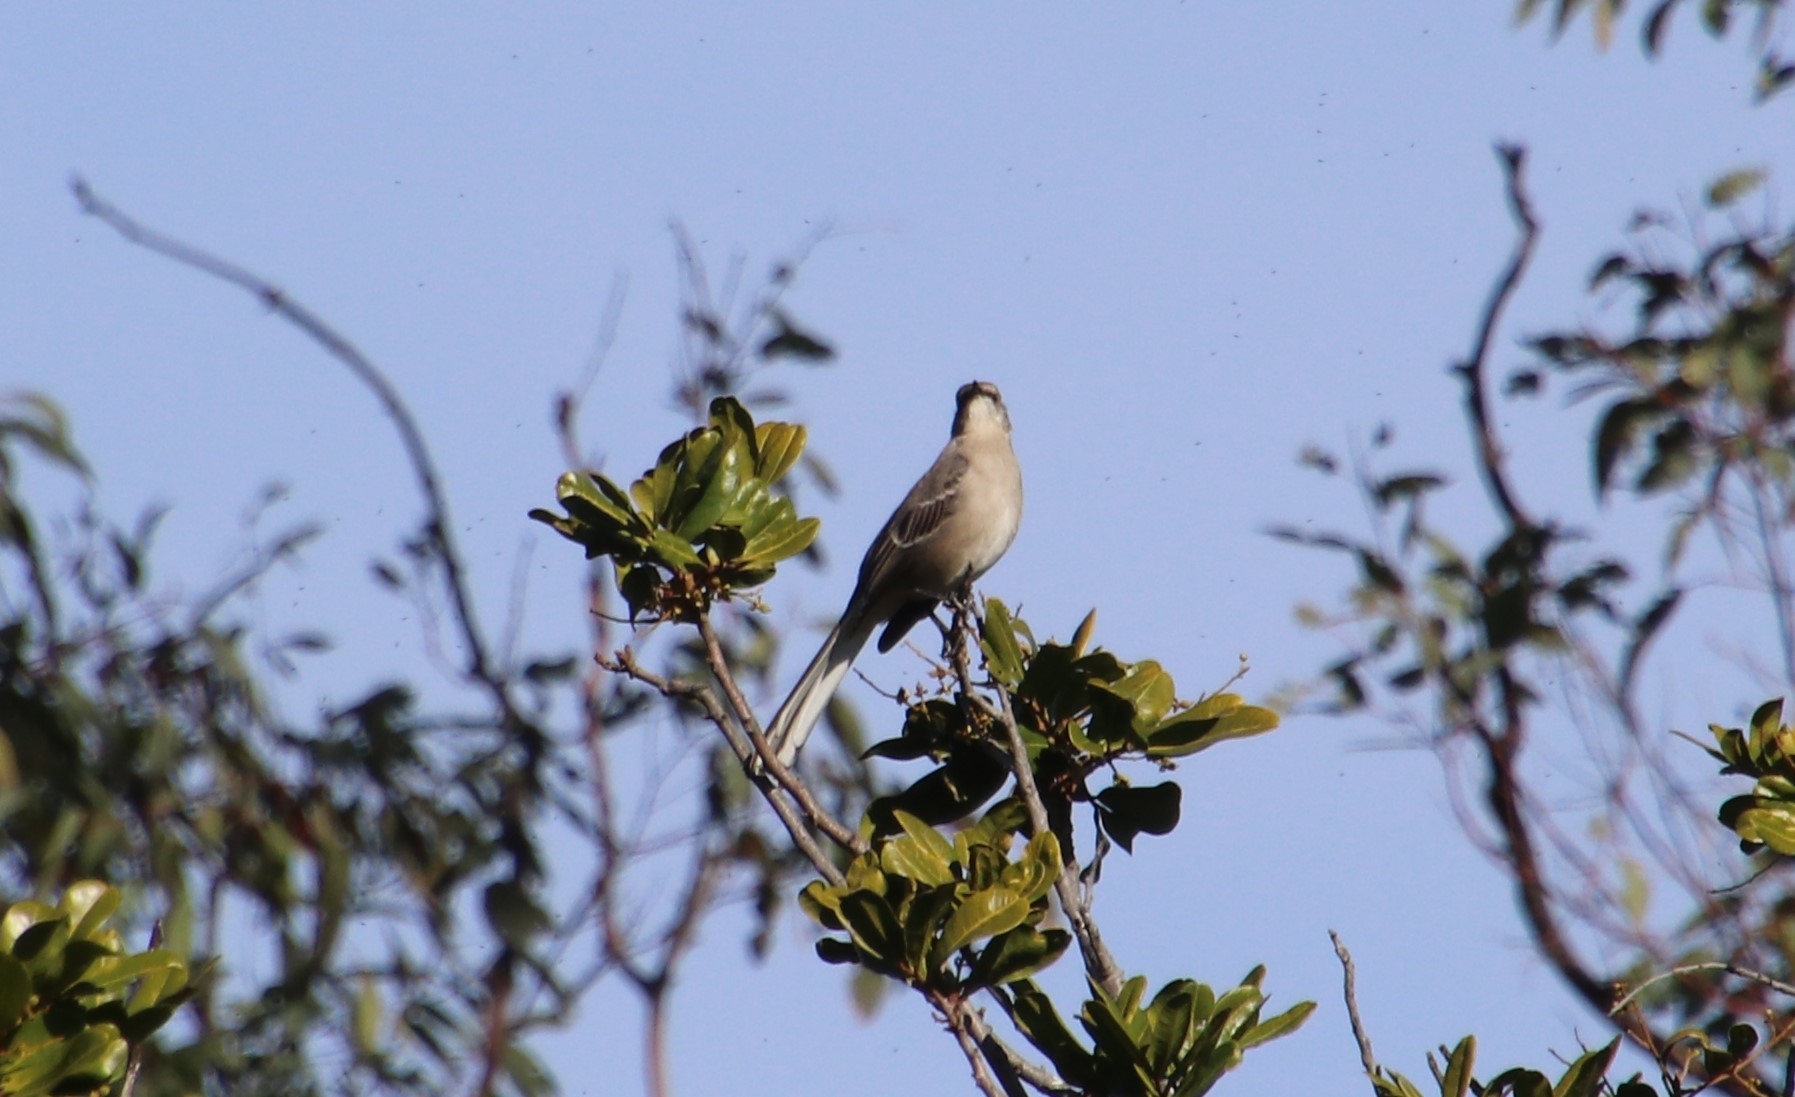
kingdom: Animalia
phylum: Chordata
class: Aves
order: Passeriformes
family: Mimidae
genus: Mimus
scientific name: Mimus polyglottos
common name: Northern mockingbird
